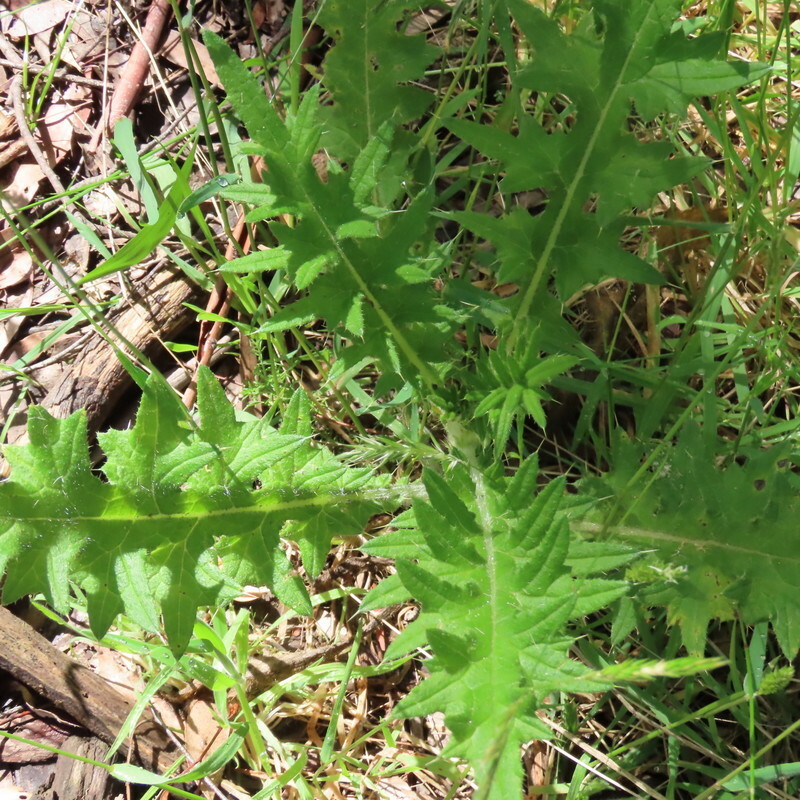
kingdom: Plantae
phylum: Tracheophyta
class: Magnoliopsida
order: Asterales
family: Asteraceae
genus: Cirsium
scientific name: Cirsium vulgare
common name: Bull thistle
